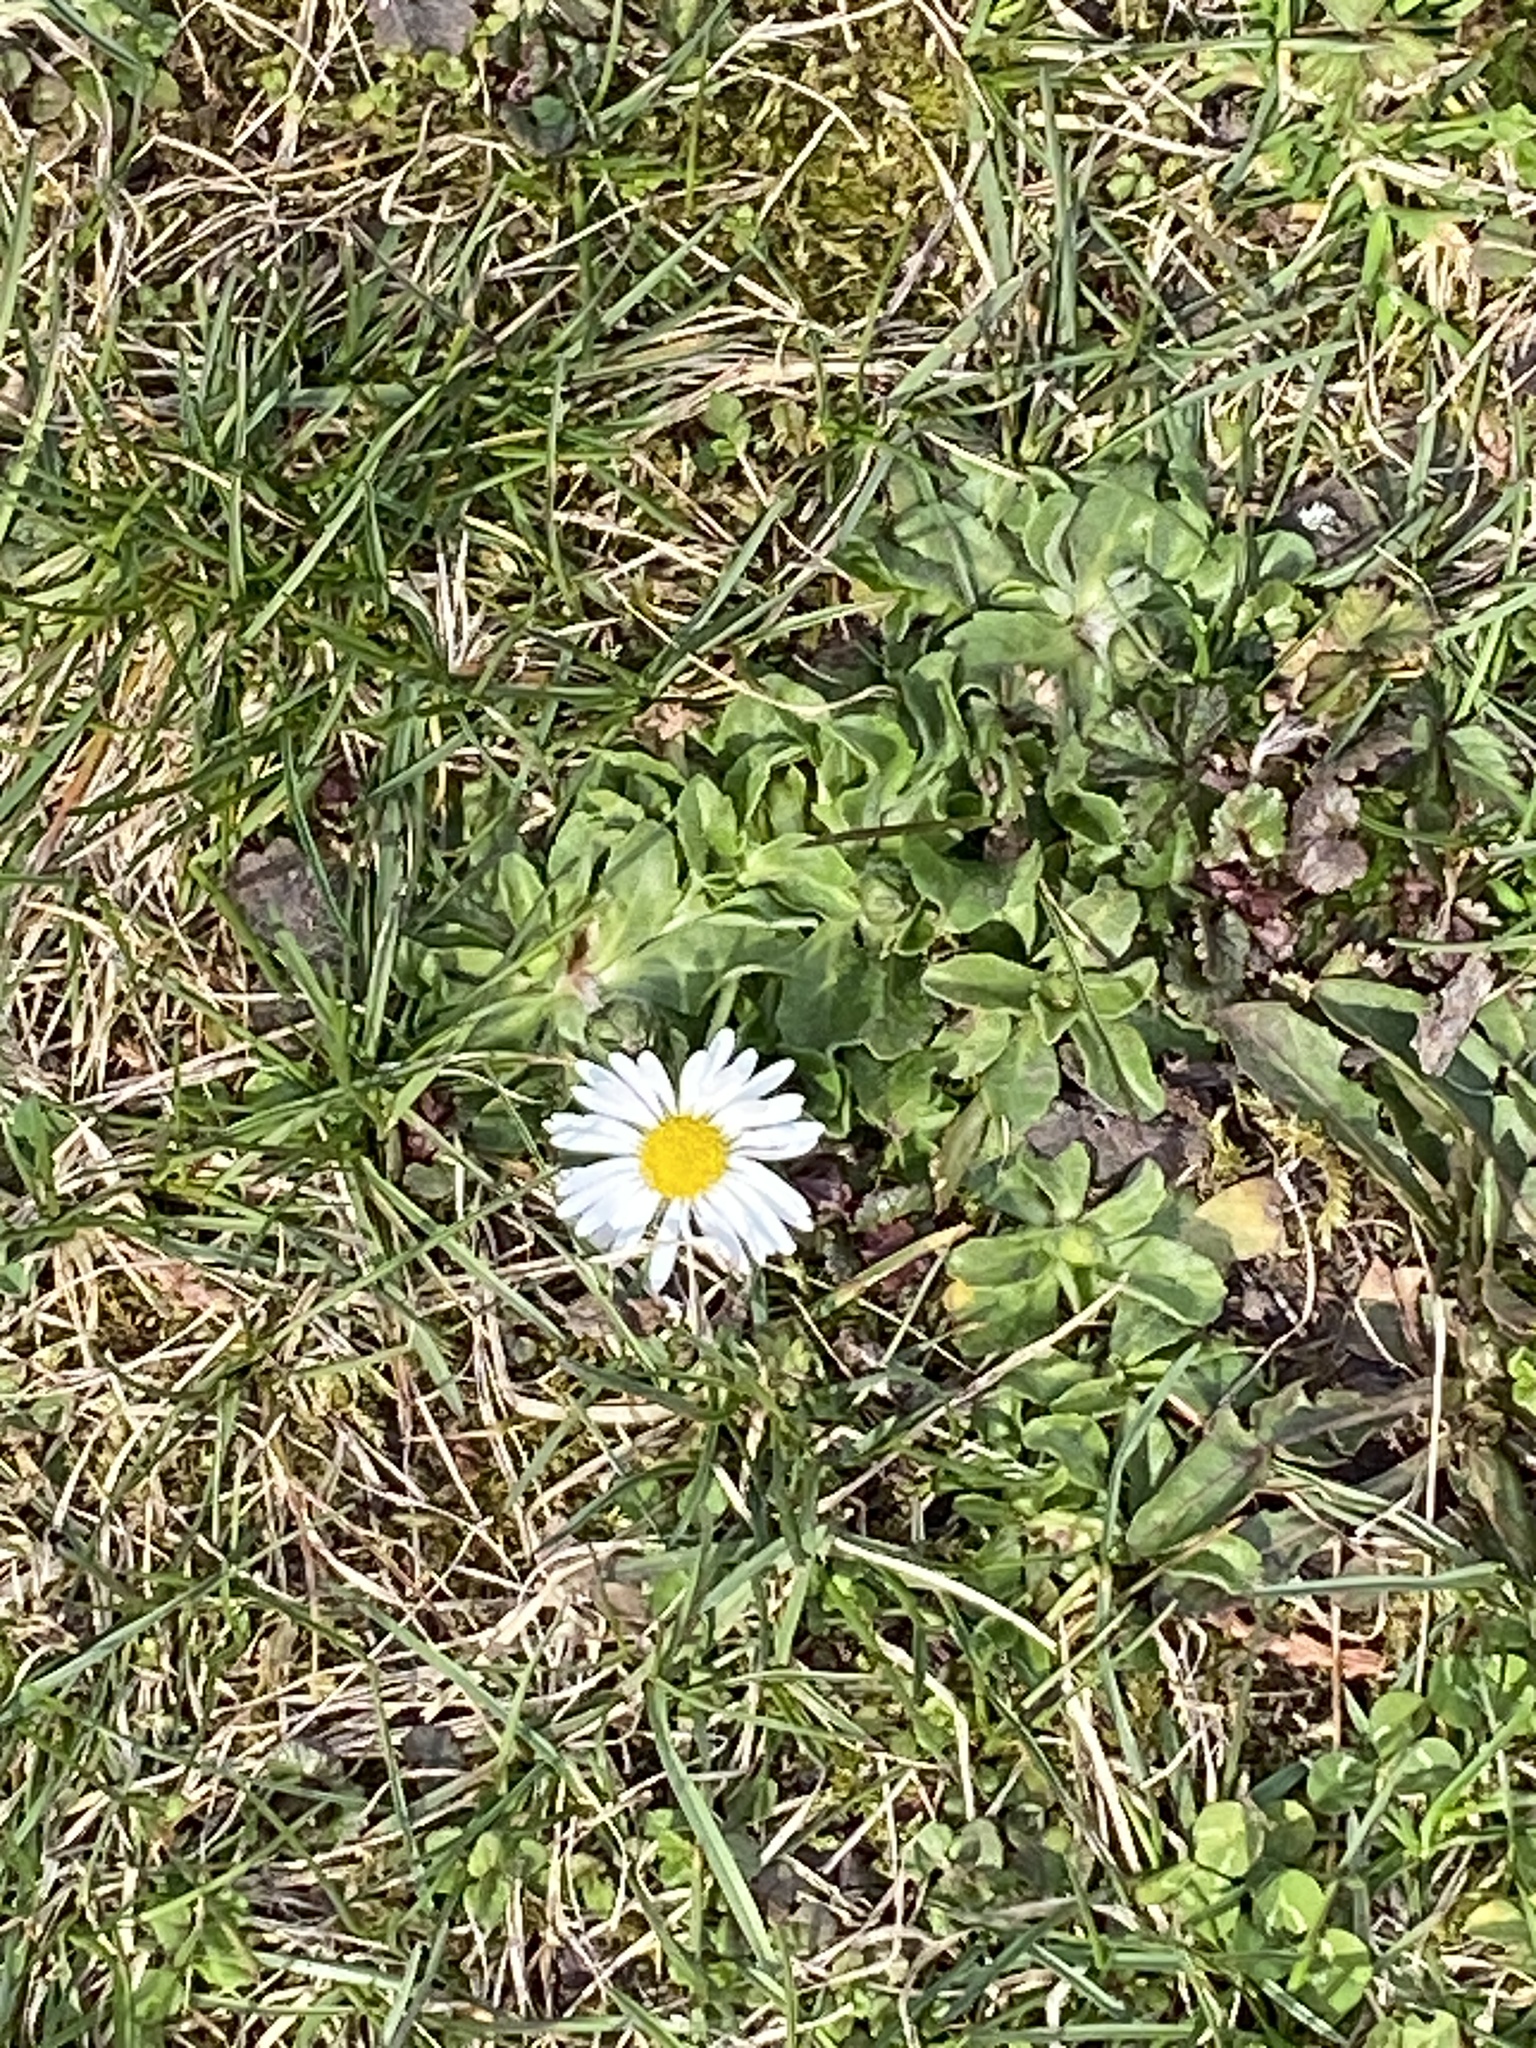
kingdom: Plantae
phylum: Tracheophyta
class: Magnoliopsida
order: Asterales
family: Asteraceae
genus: Bellis
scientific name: Bellis perennis
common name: Lawndaisy
